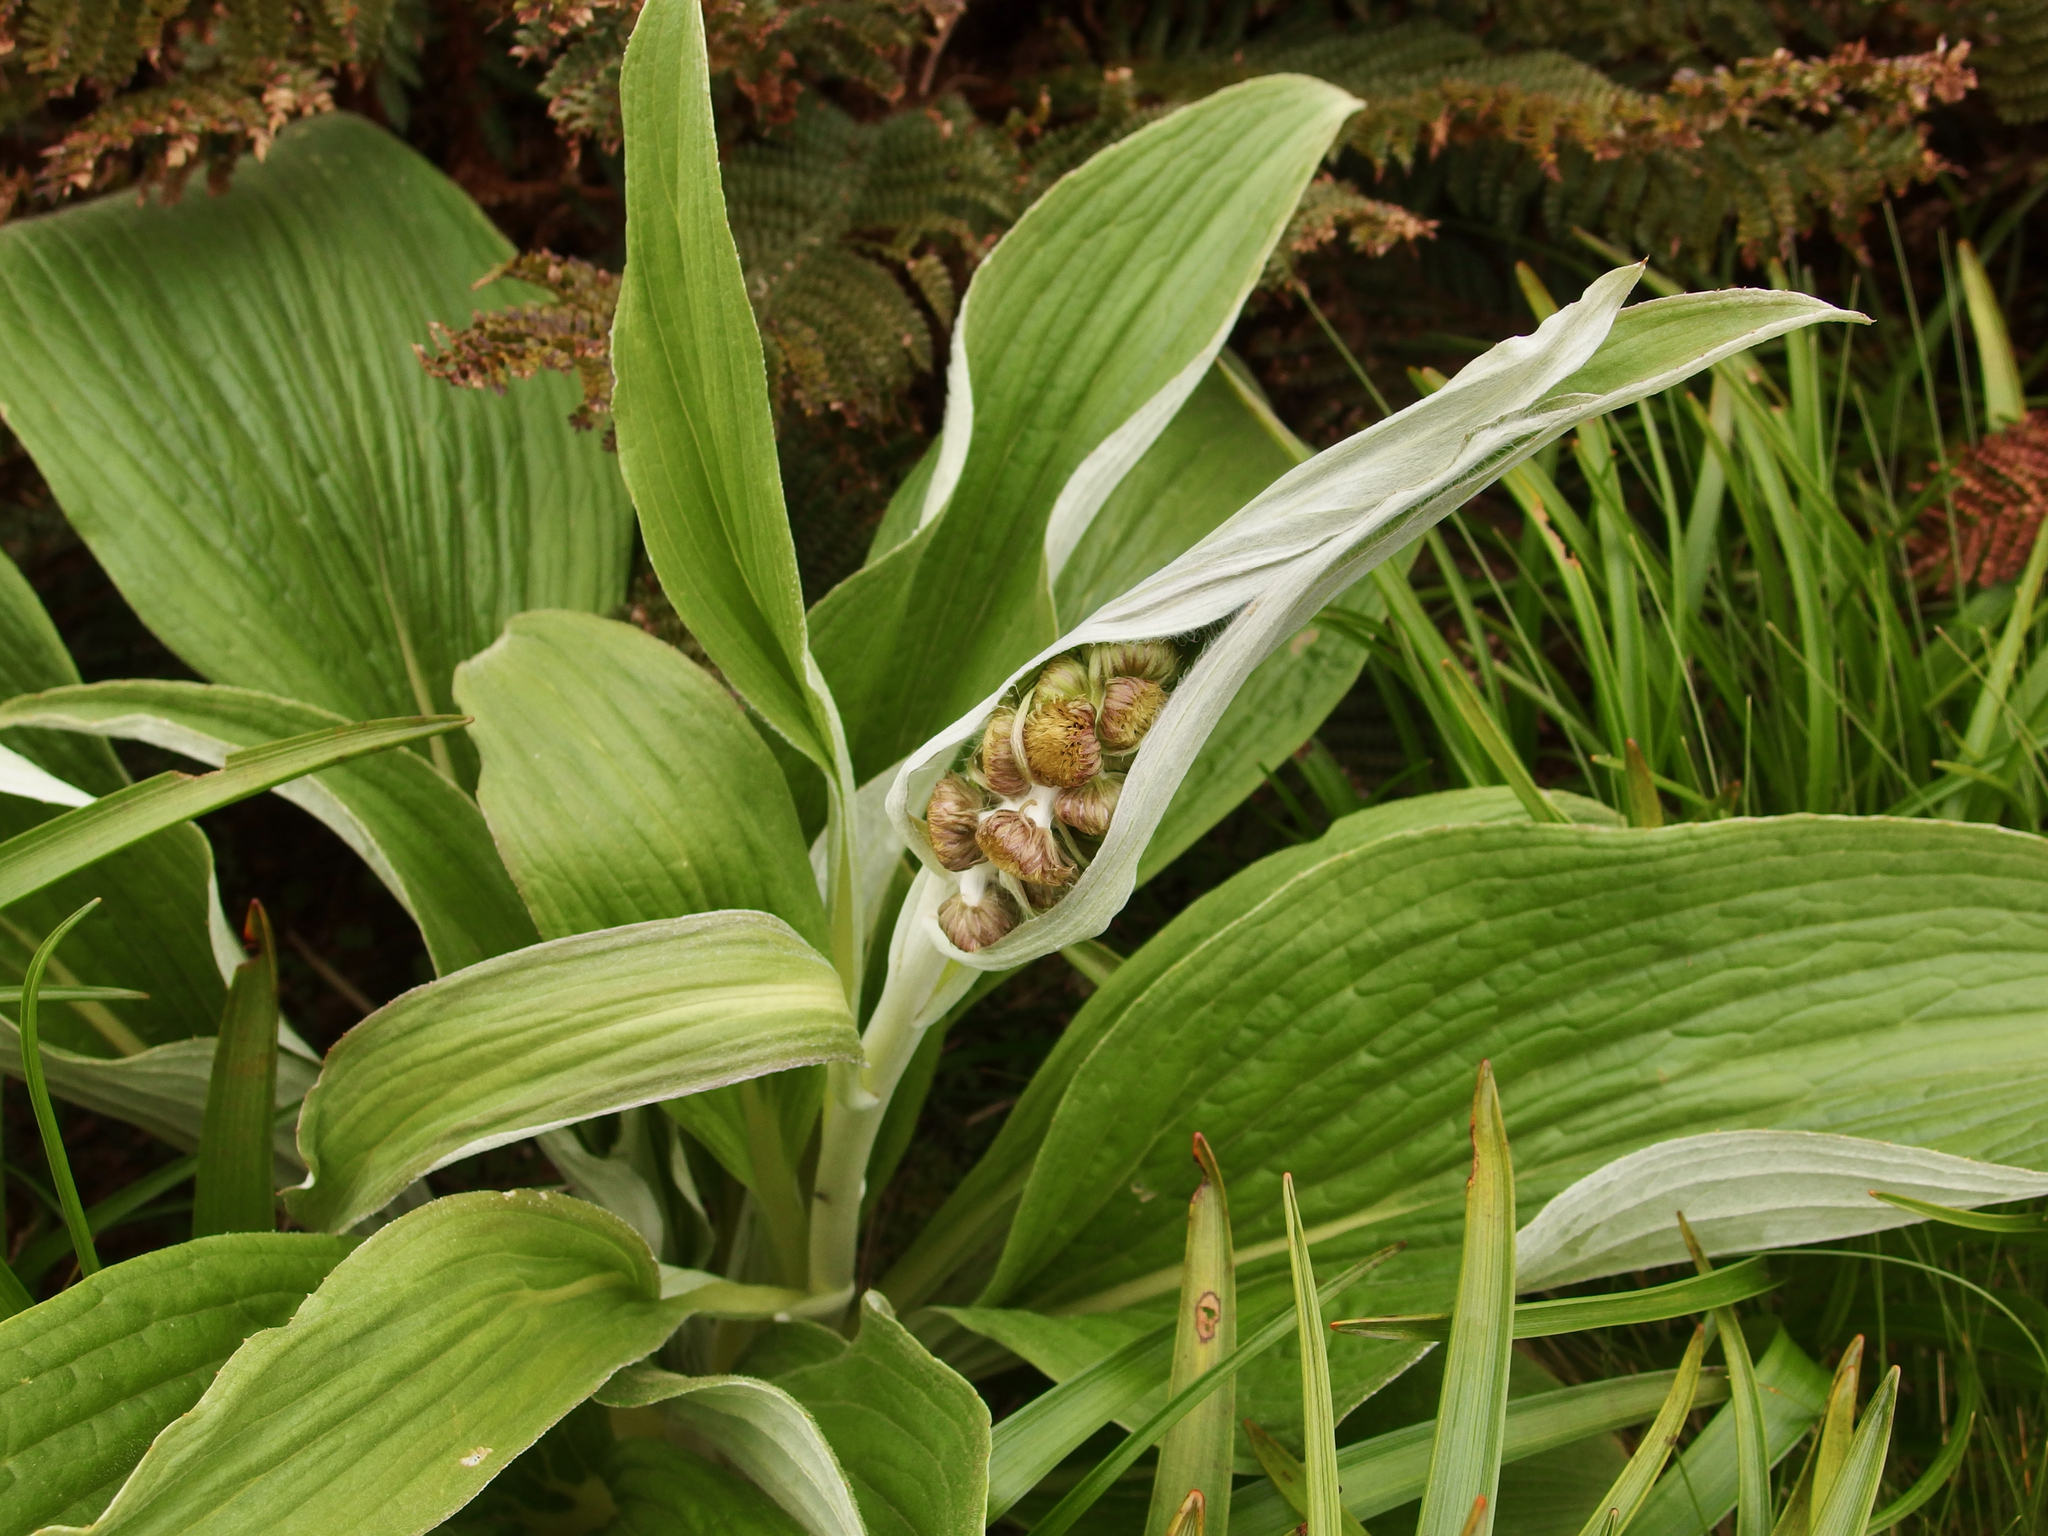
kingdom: Plantae
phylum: Tracheophyta
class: Magnoliopsida
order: Asterales
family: Asteraceae
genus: Pleurophyllum
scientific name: Pleurophyllum criniferum
